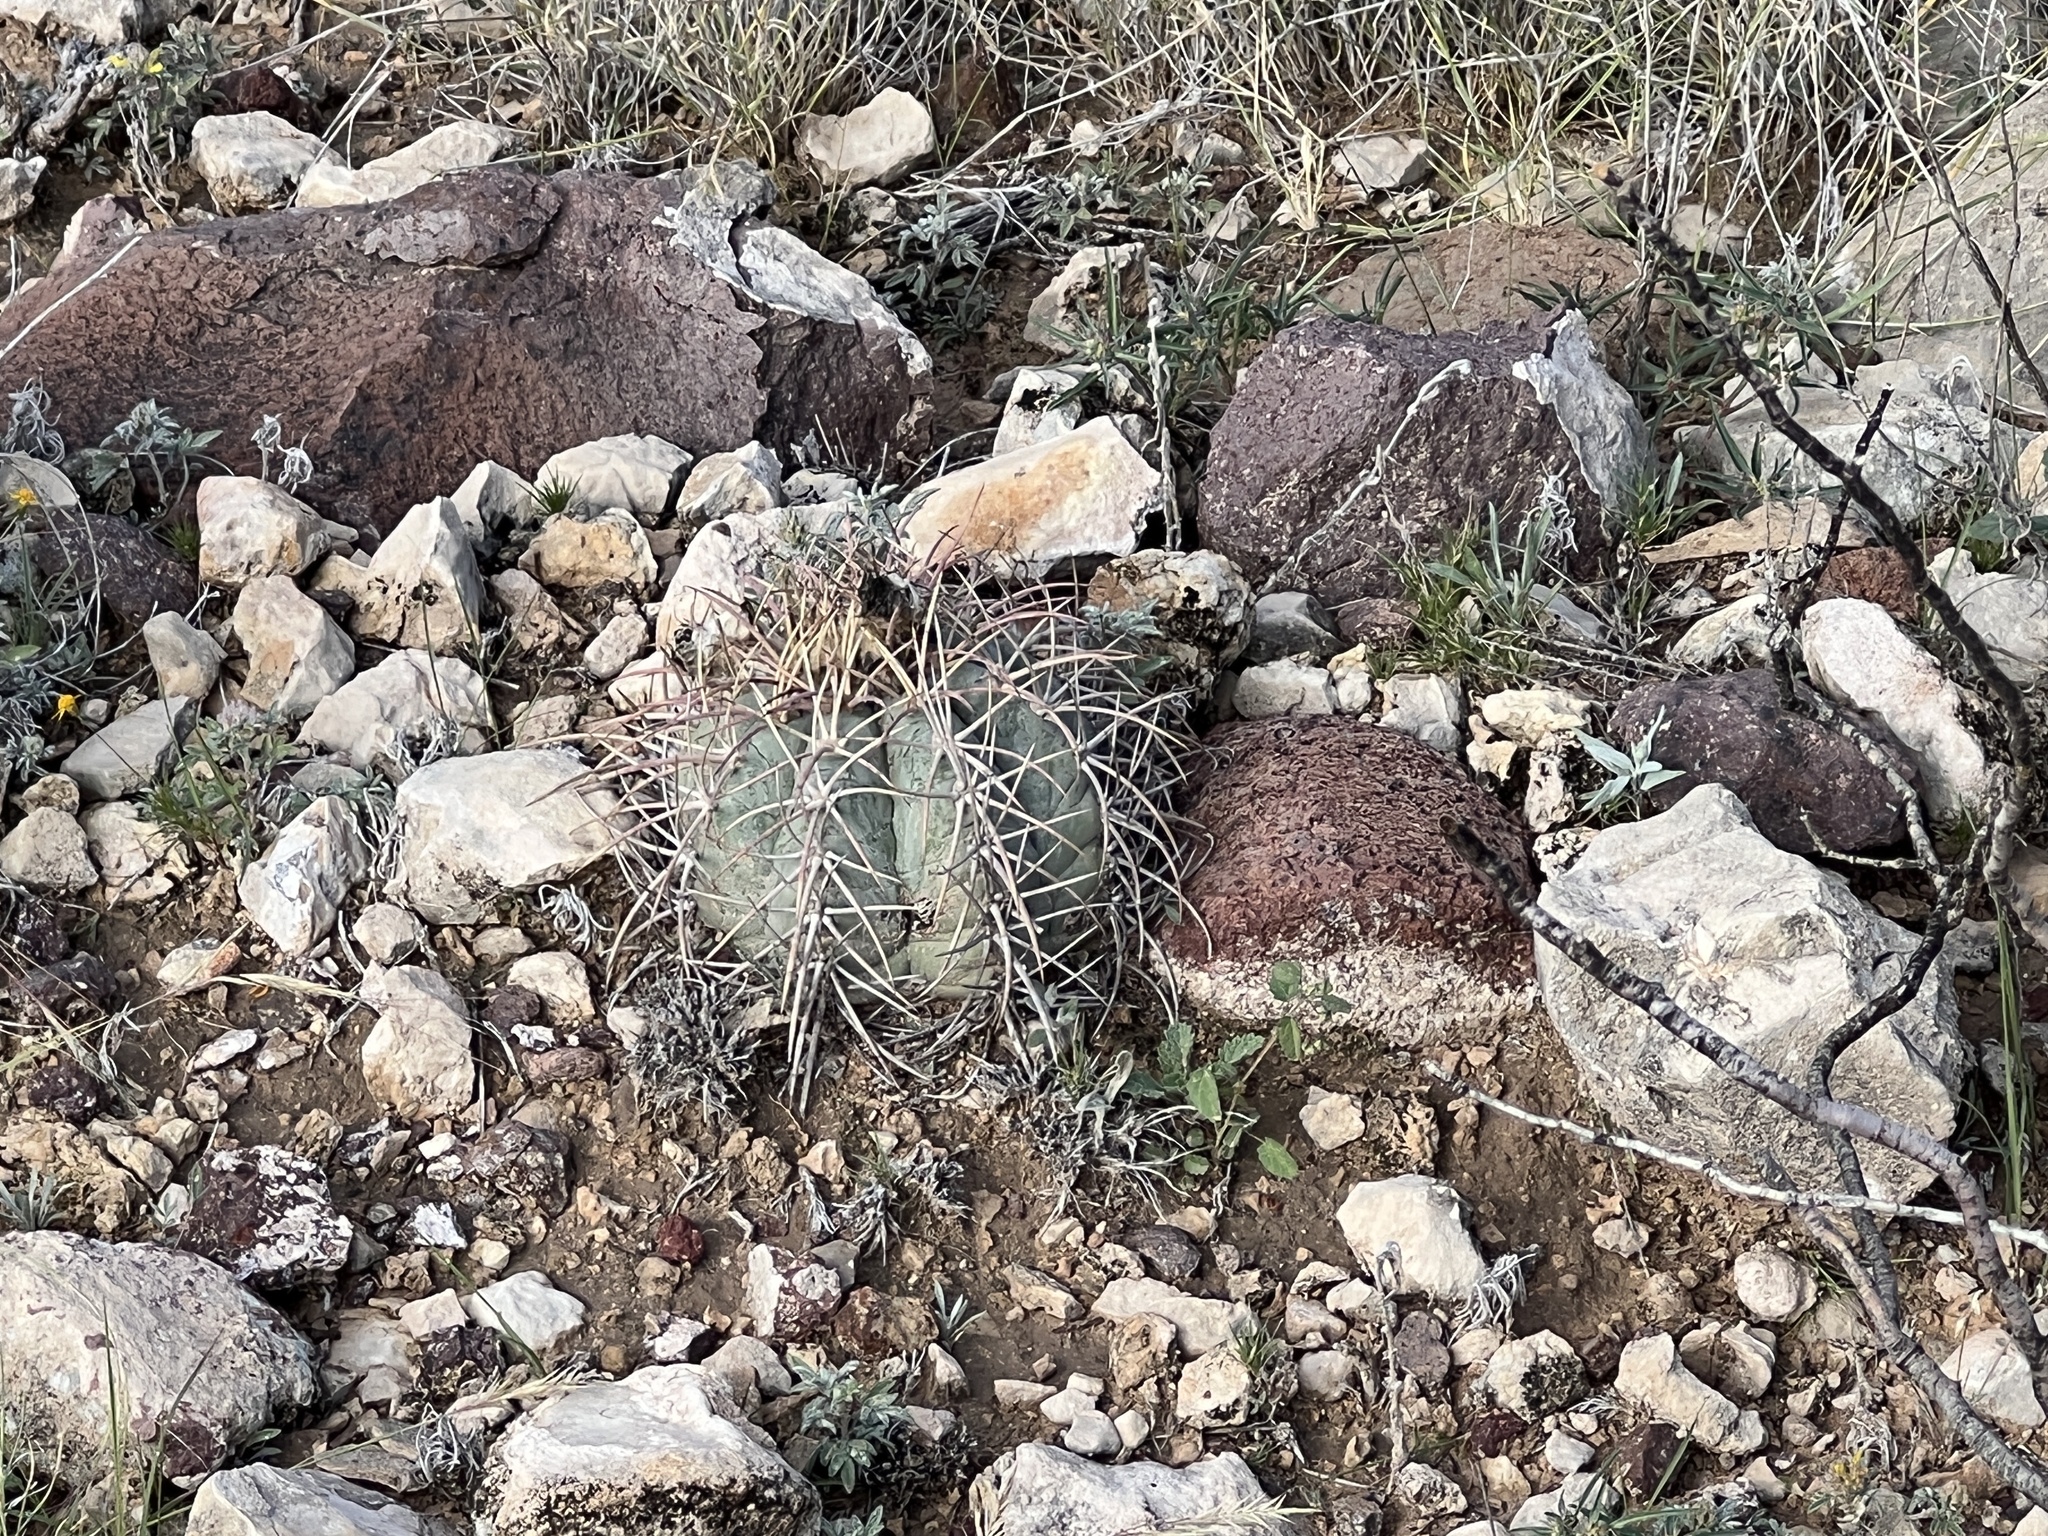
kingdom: Plantae
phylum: Tracheophyta
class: Magnoliopsida
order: Caryophyllales
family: Cactaceae
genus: Echinocactus
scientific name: Echinocactus horizonthalonius
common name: Devilshead
